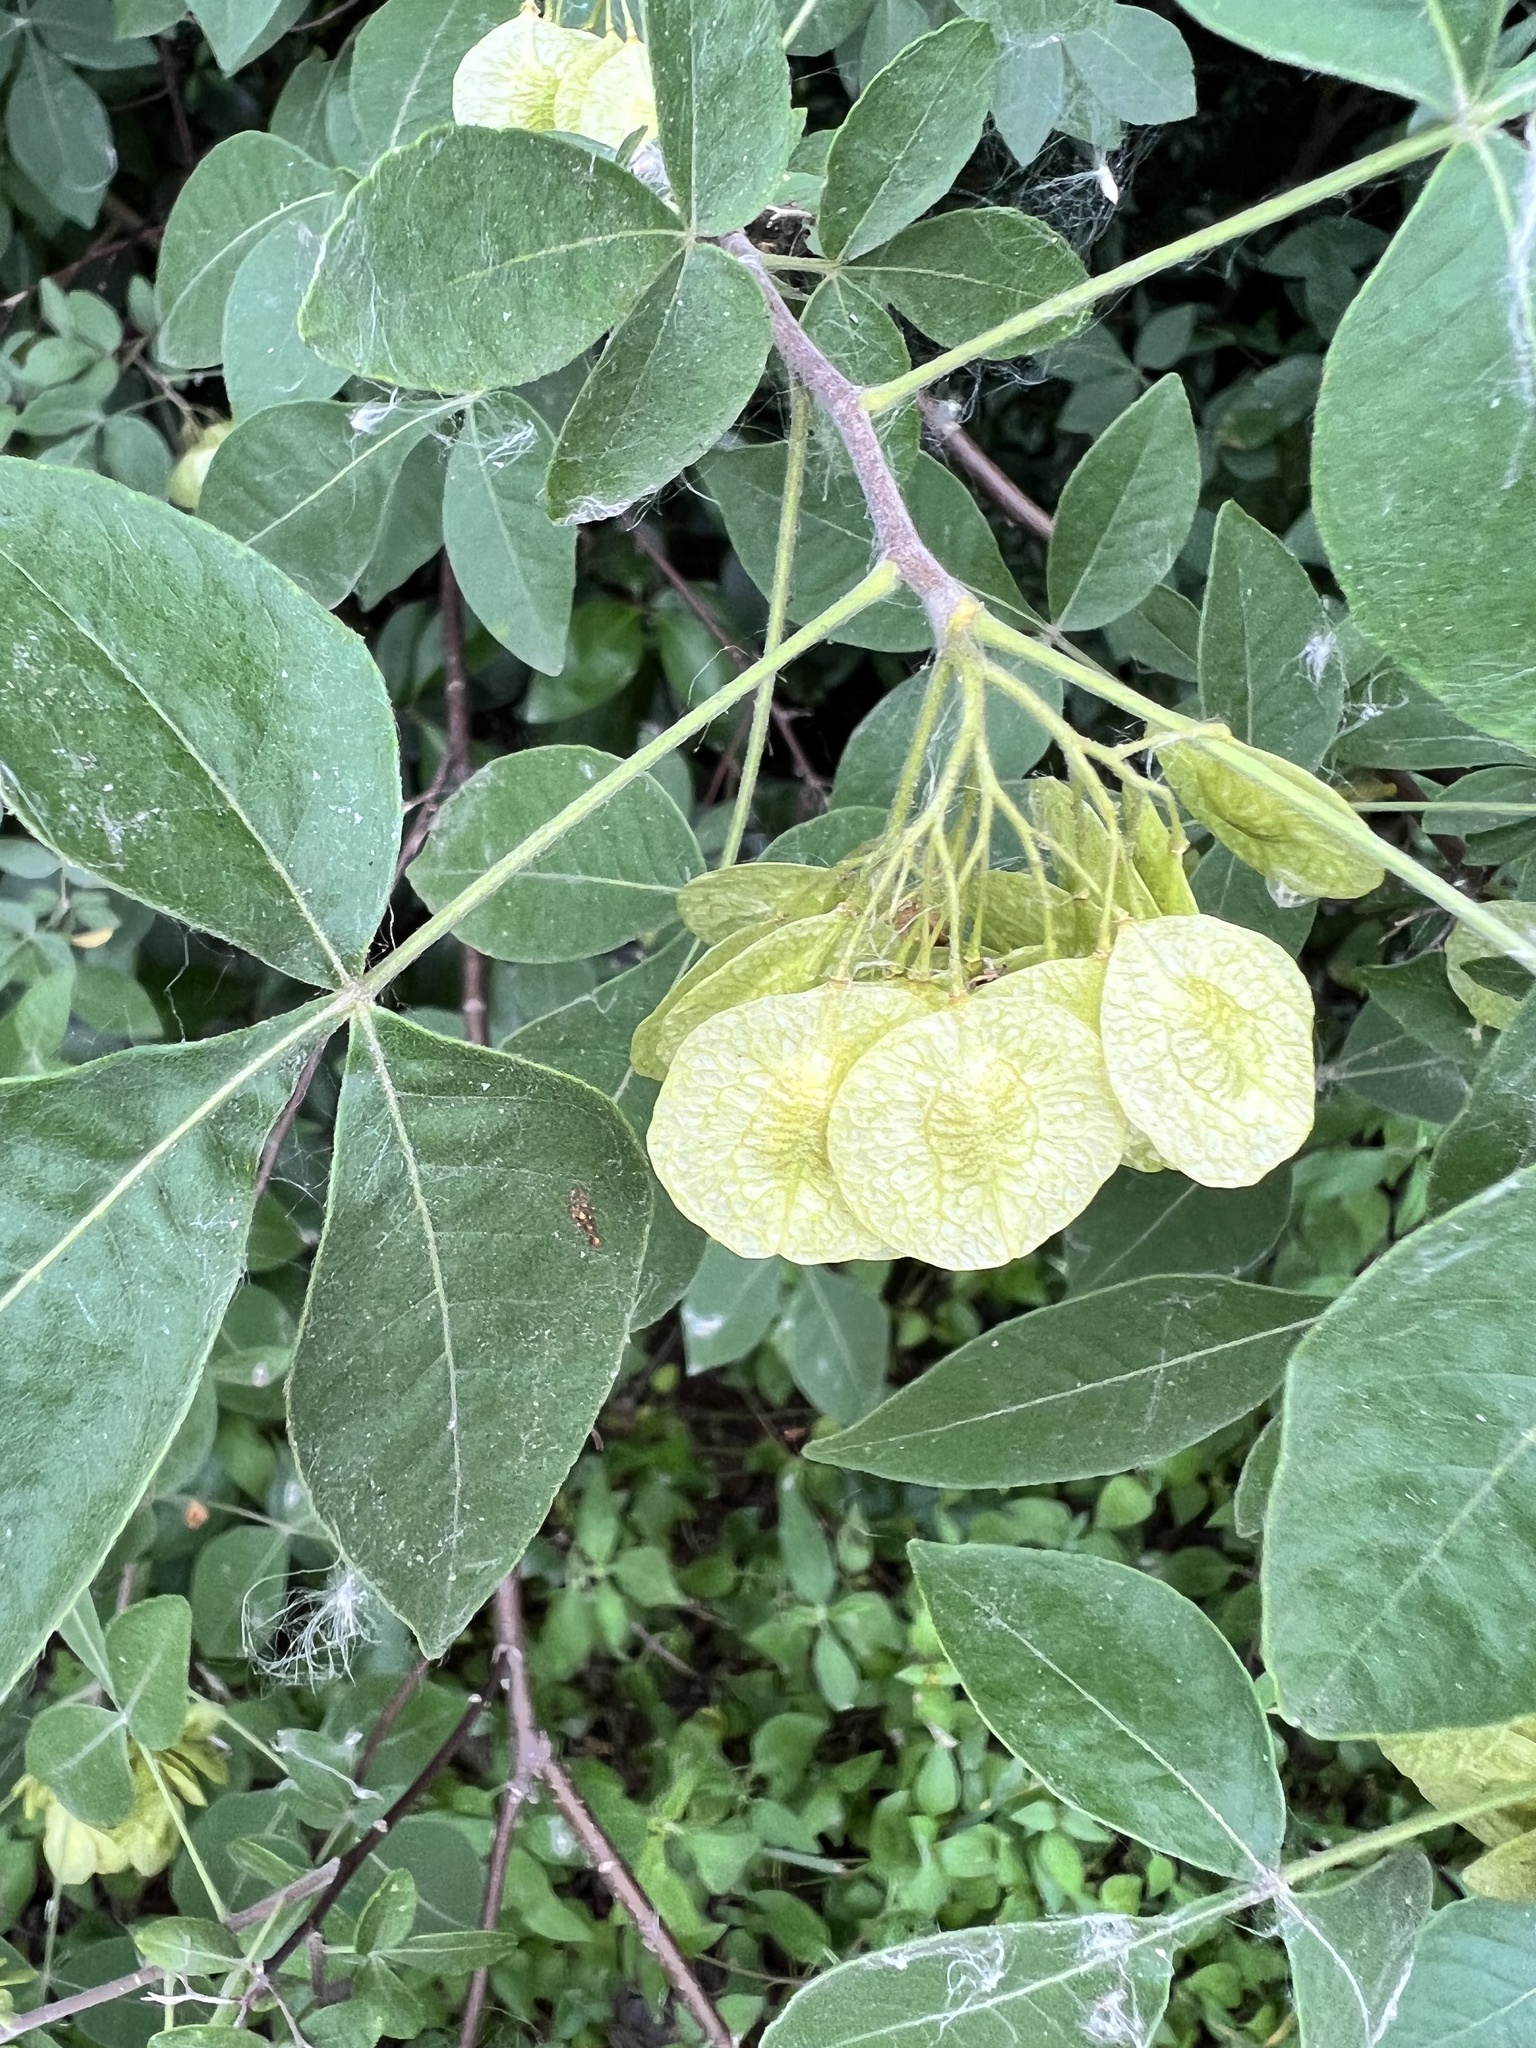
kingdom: Plantae
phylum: Tracheophyta
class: Magnoliopsida
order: Sapindales
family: Rutaceae
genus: Ptelea
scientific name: Ptelea trifoliata
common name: Common hop-tree
